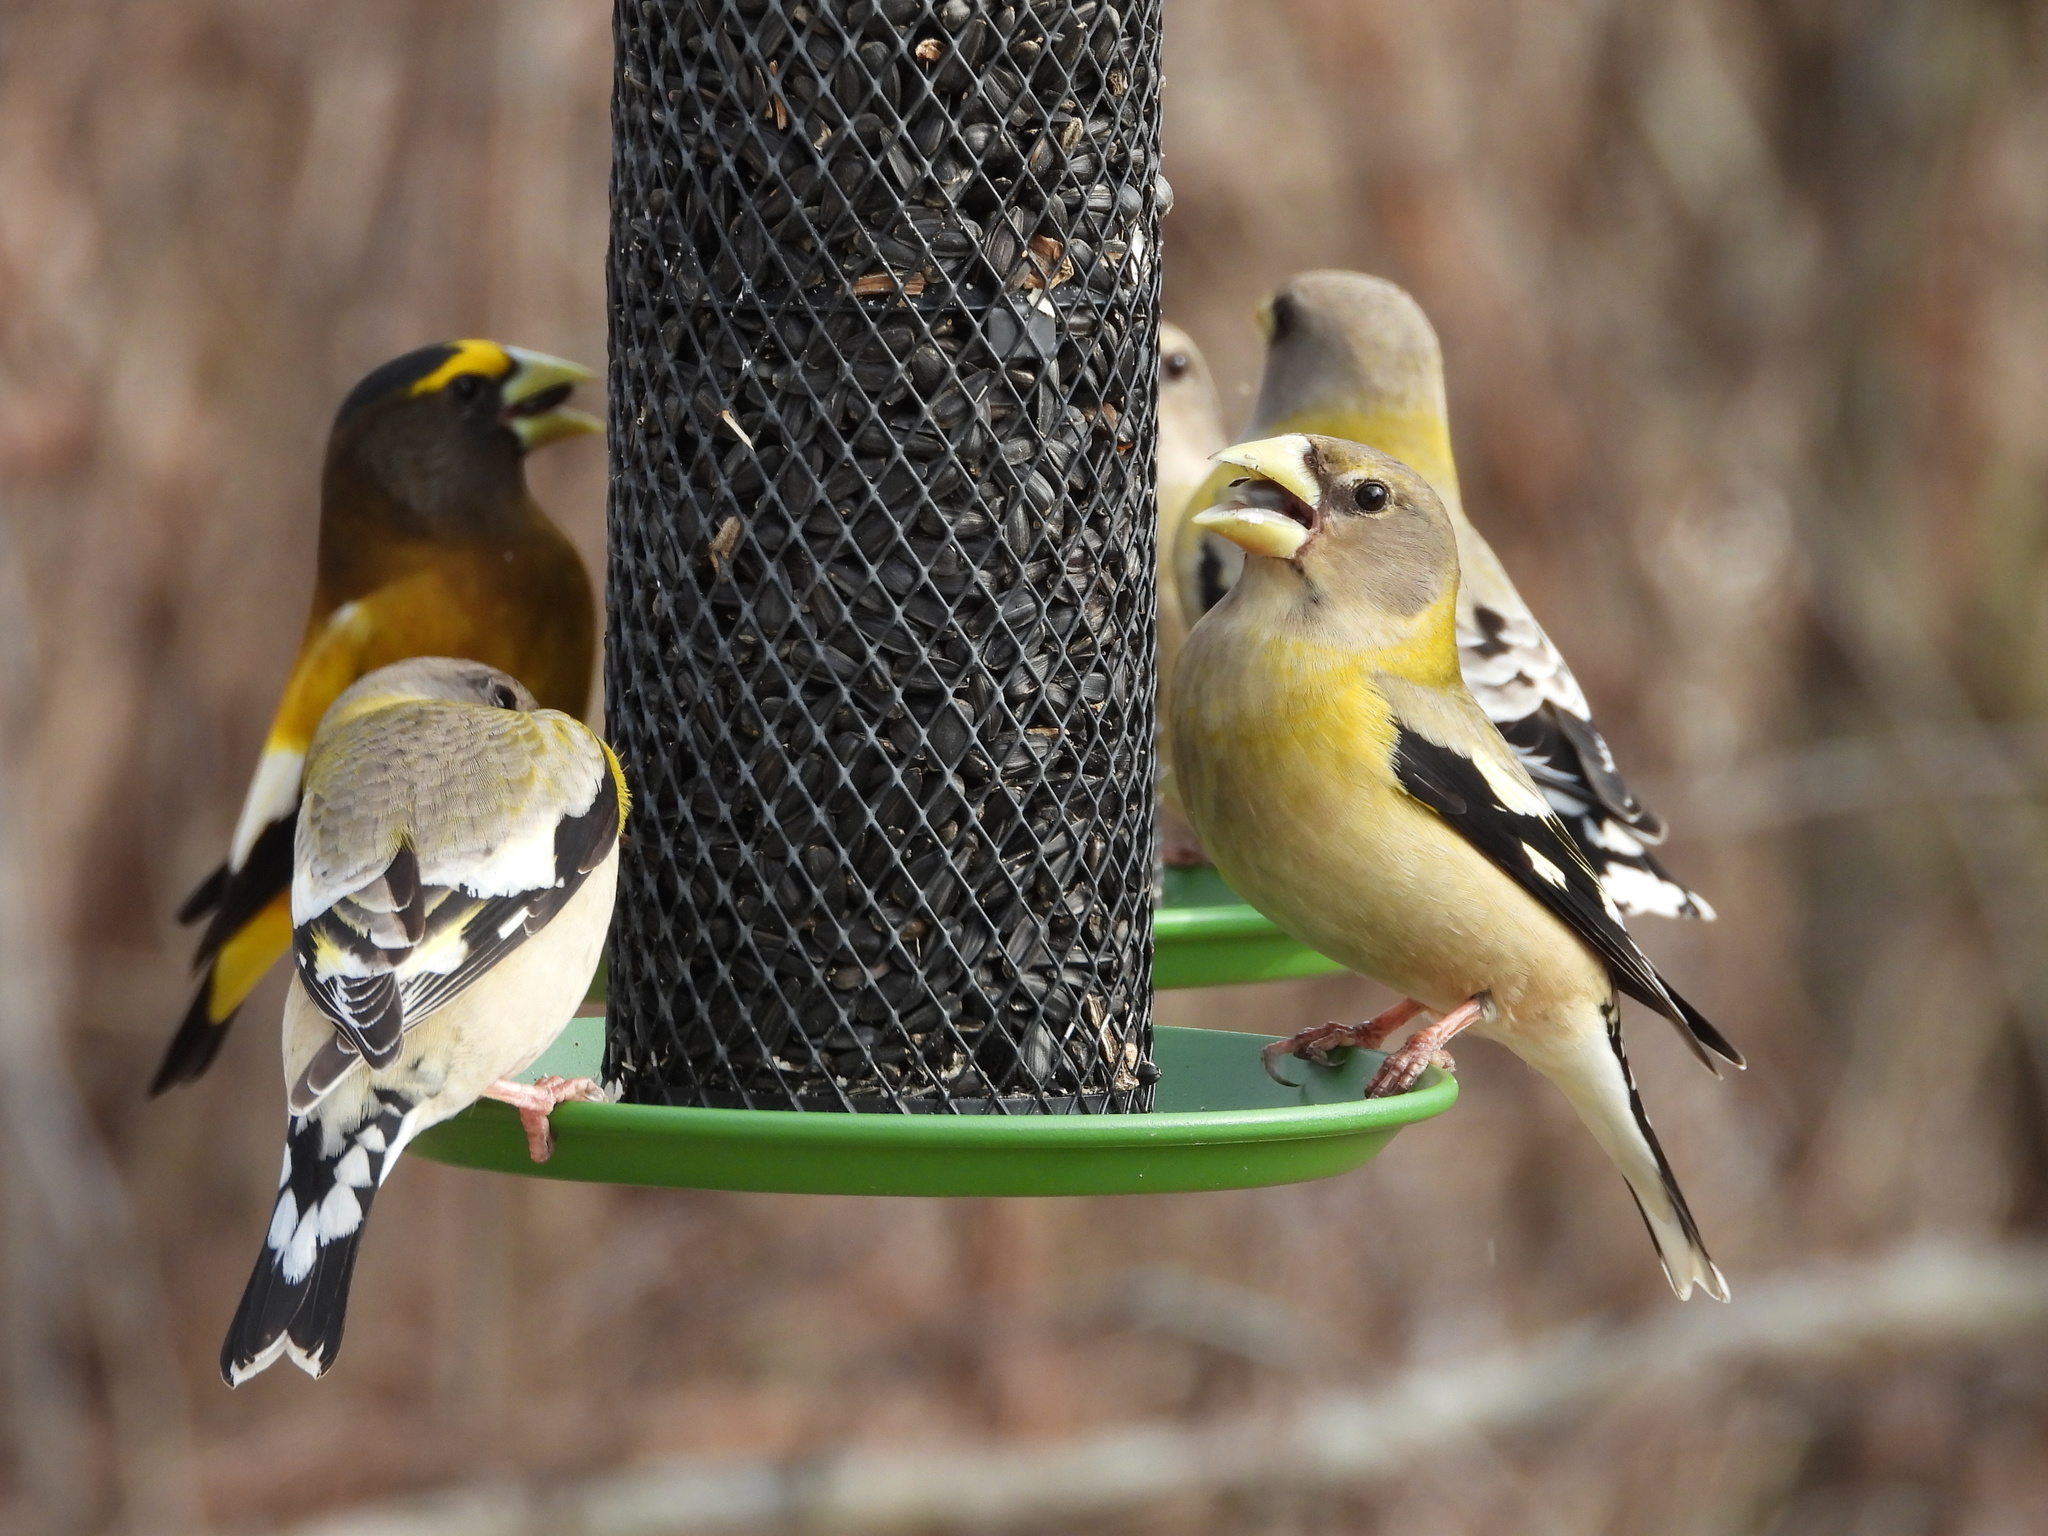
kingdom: Animalia
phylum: Chordata
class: Aves
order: Passeriformes
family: Fringillidae
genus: Hesperiphona
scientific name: Hesperiphona vespertina
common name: Evening grosbeak
